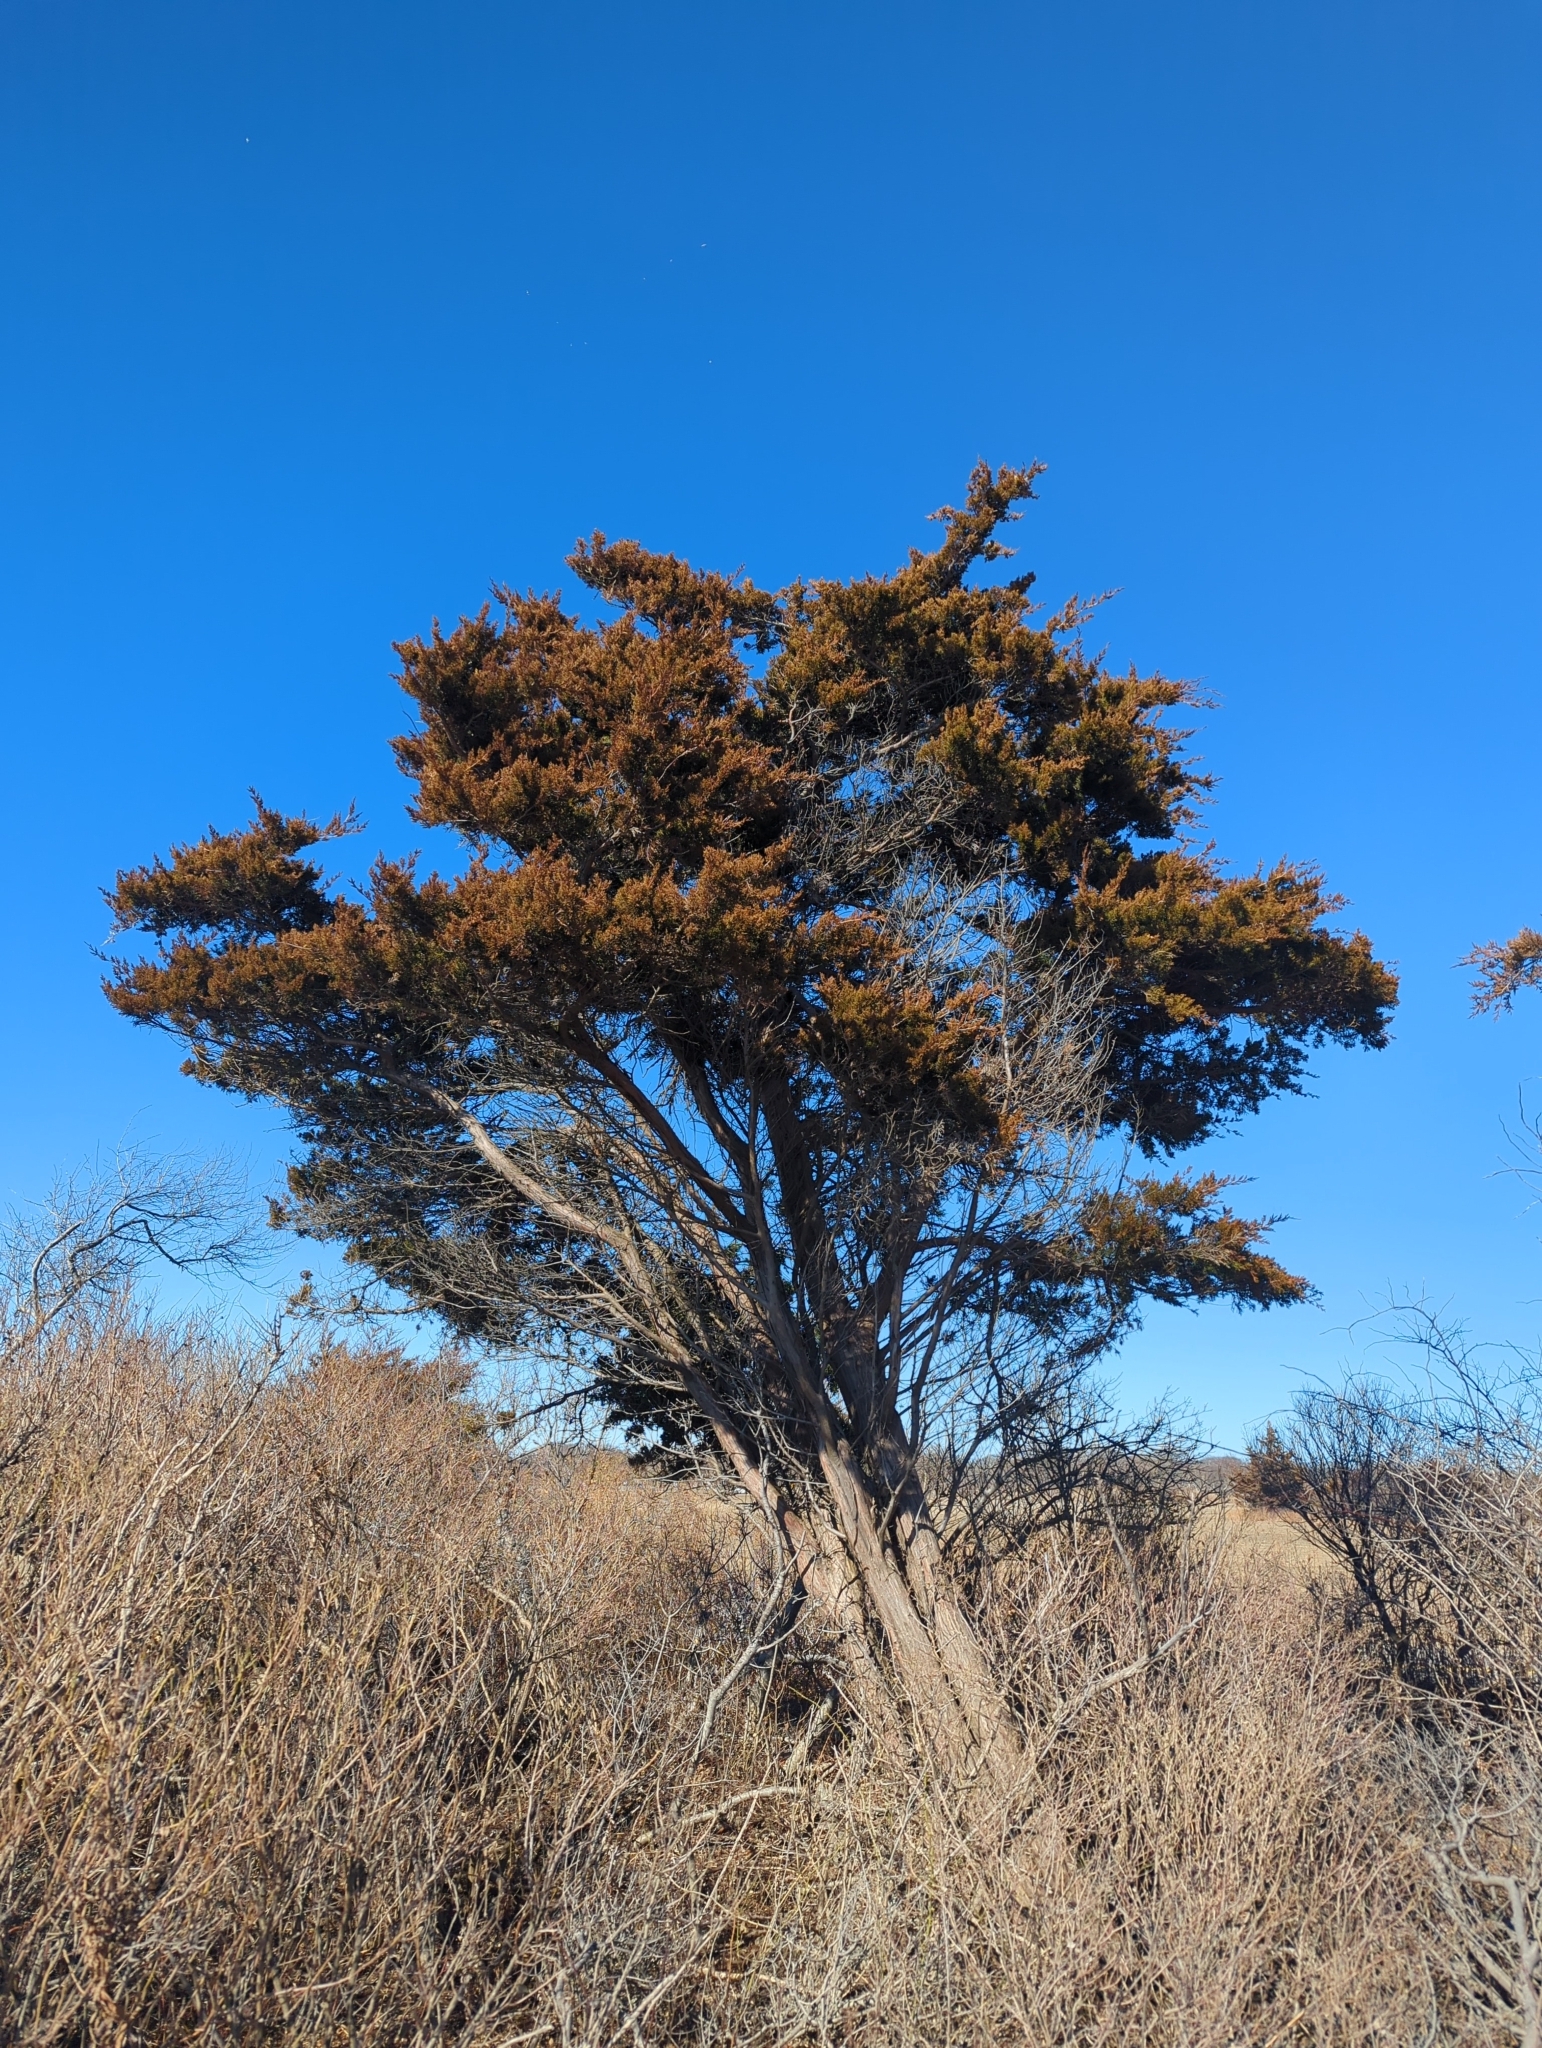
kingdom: Plantae
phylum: Tracheophyta
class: Pinopsida
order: Pinales
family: Cupressaceae
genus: Juniperus
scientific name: Juniperus virginiana
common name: Red juniper
